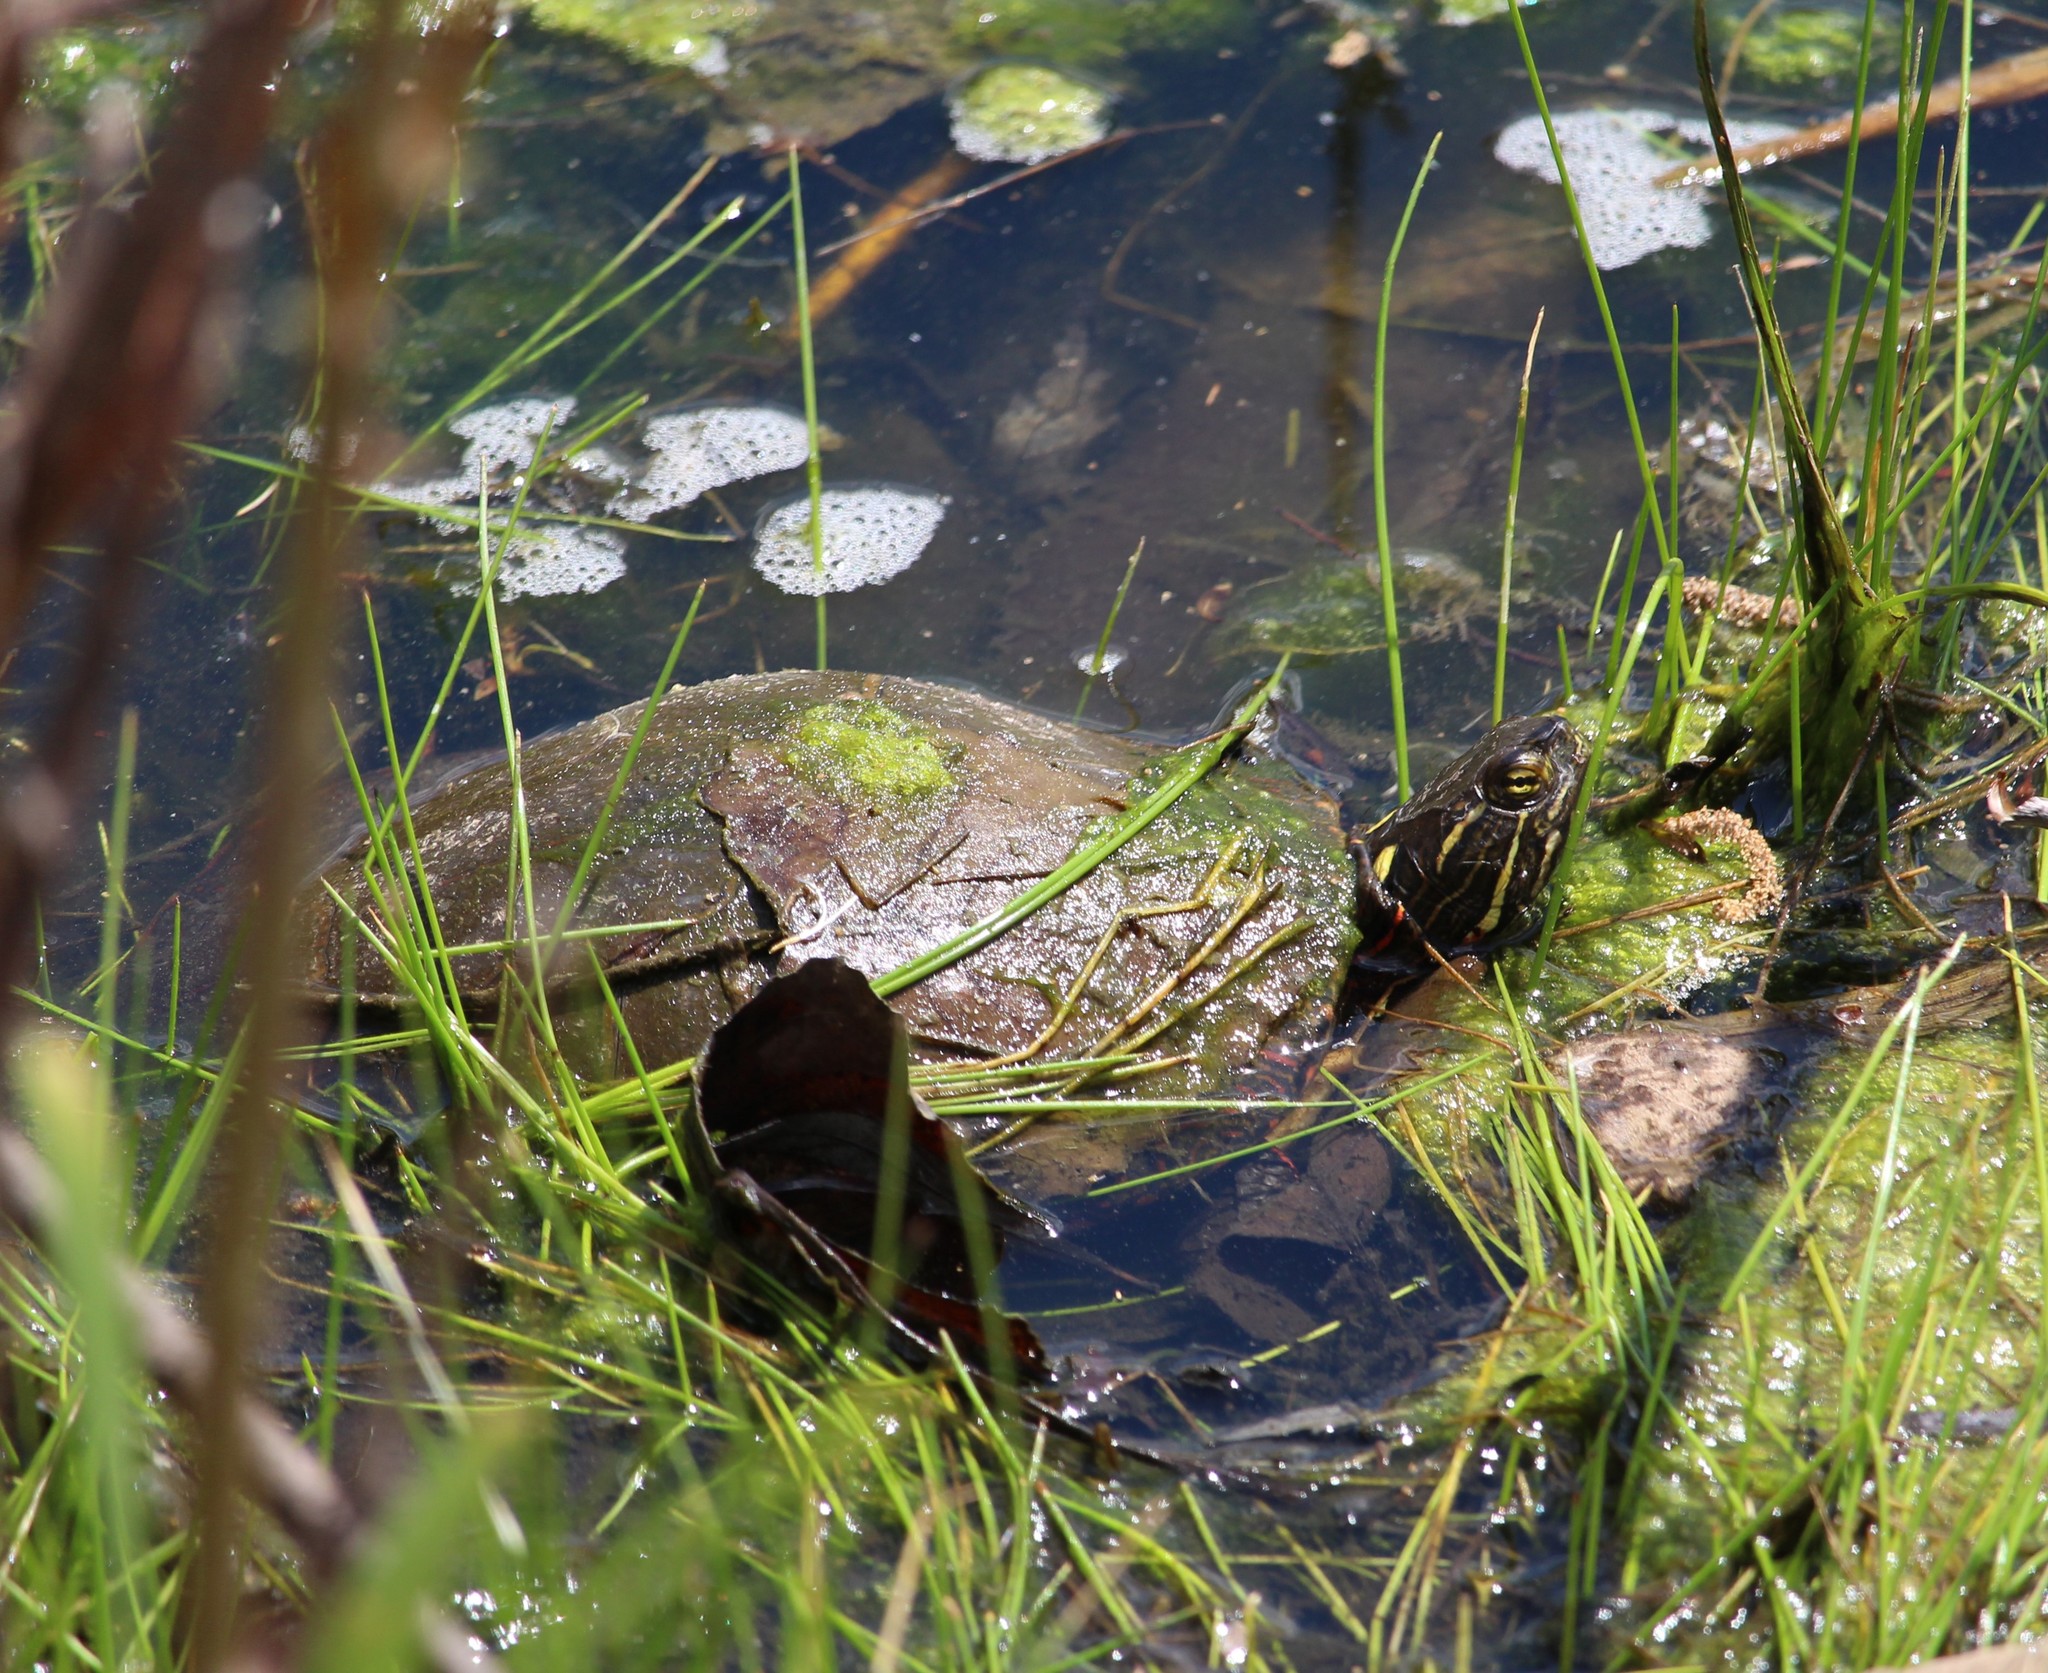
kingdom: Animalia
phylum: Chordata
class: Testudines
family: Emydidae
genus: Chrysemys
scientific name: Chrysemys picta
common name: Painted turtle
